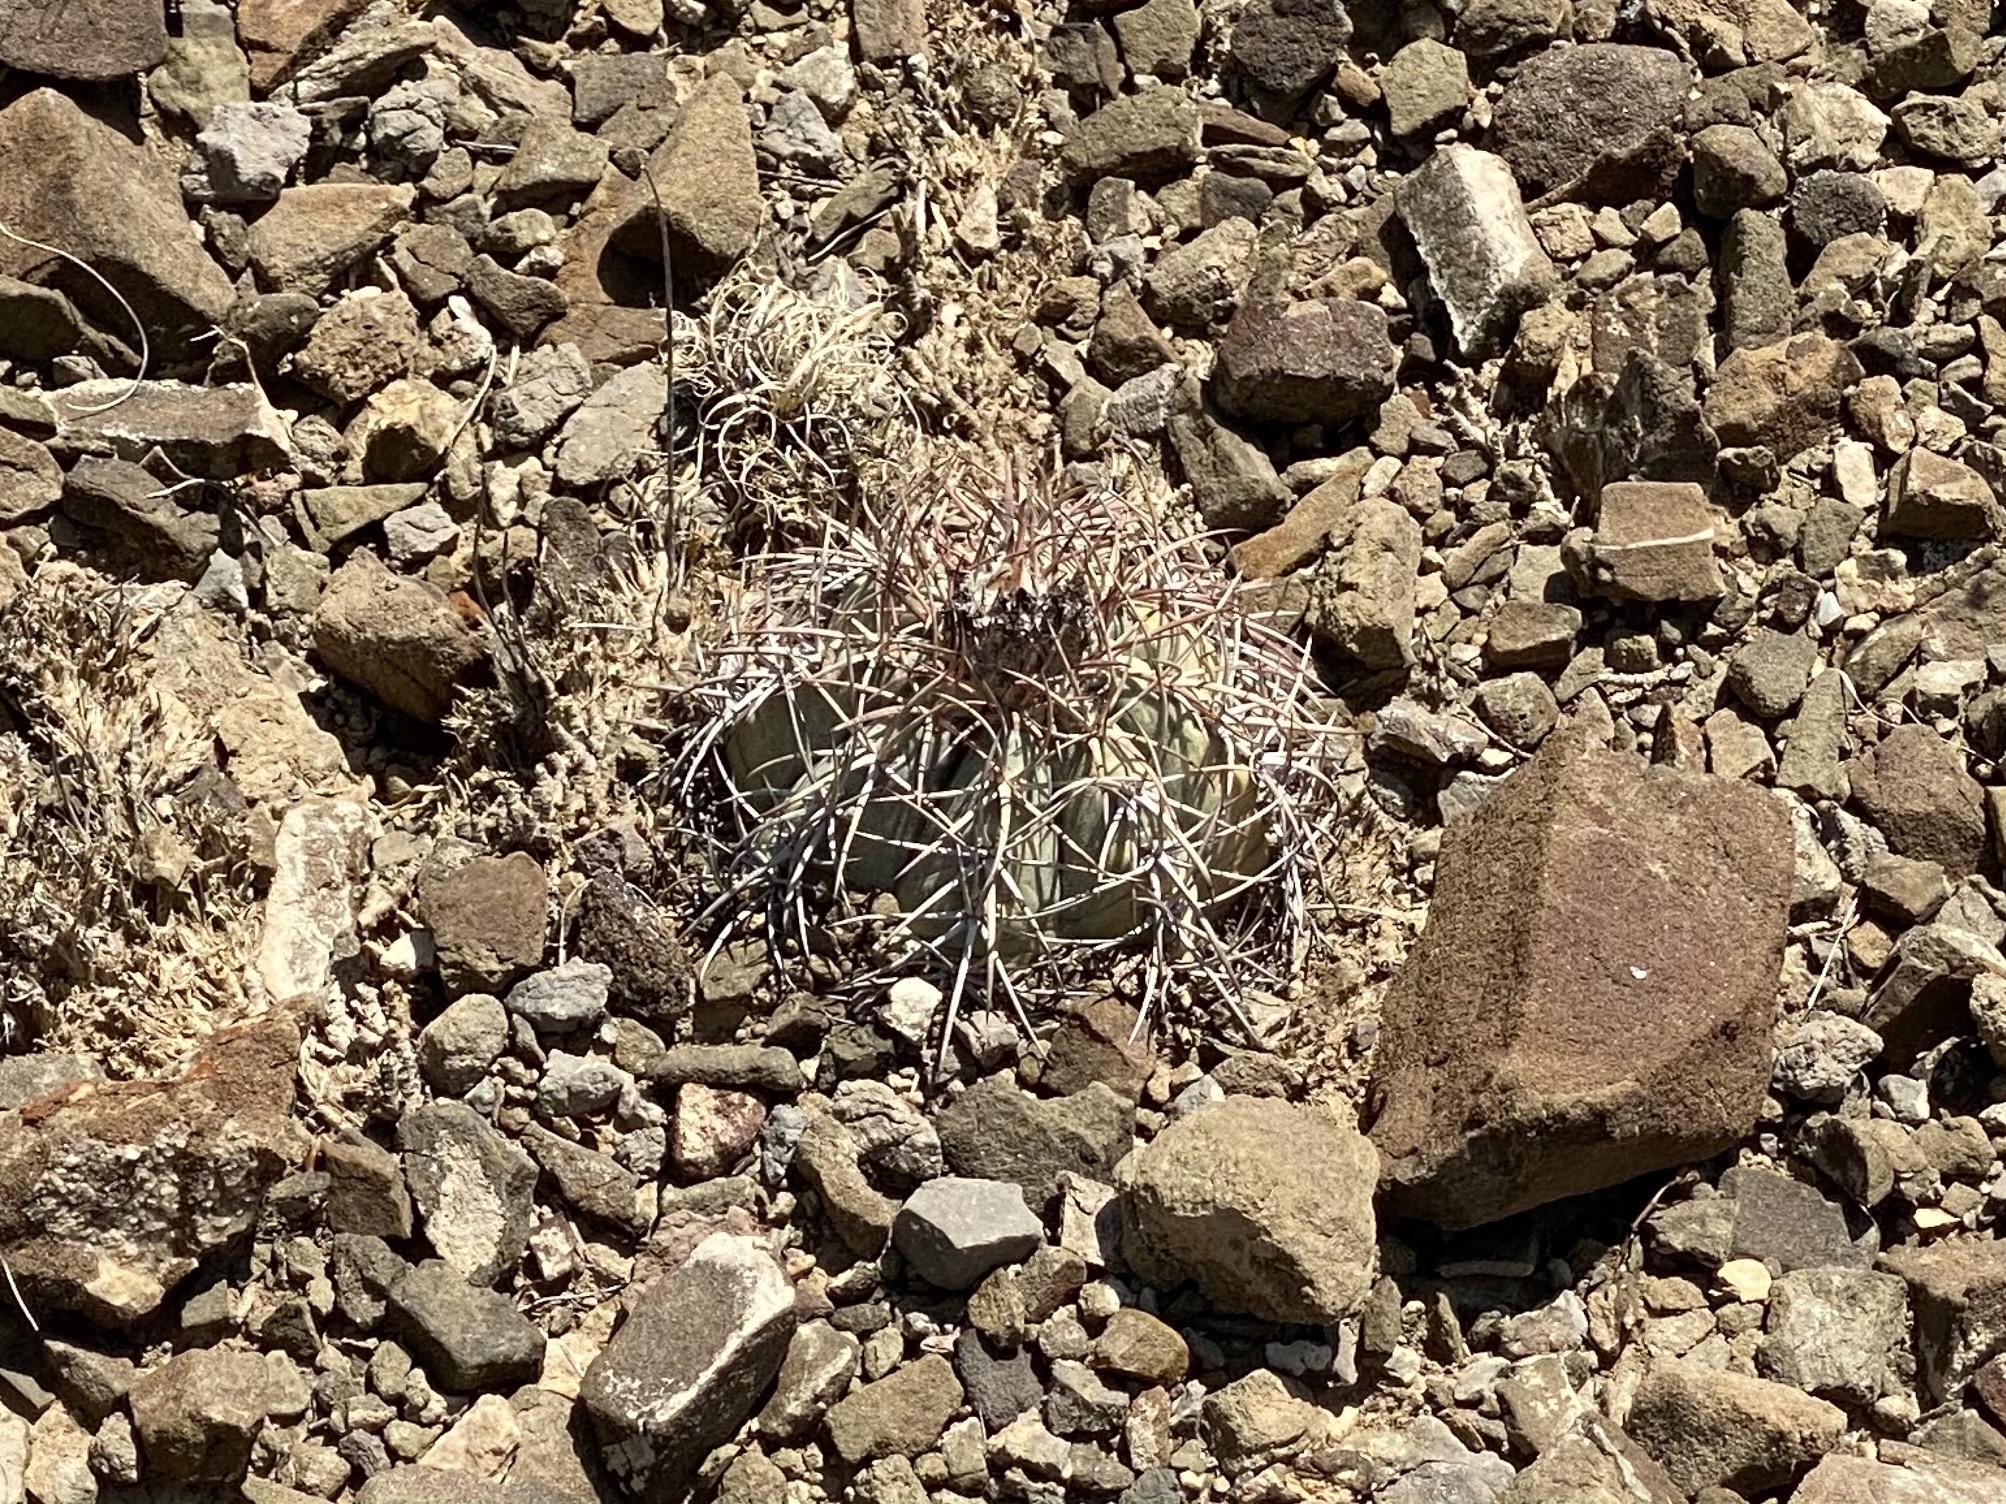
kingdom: Plantae
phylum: Tracheophyta
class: Magnoliopsida
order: Caryophyllales
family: Cactaceae
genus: Echinocactus
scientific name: Echinocactus horizonthalonius
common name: Devilshead
